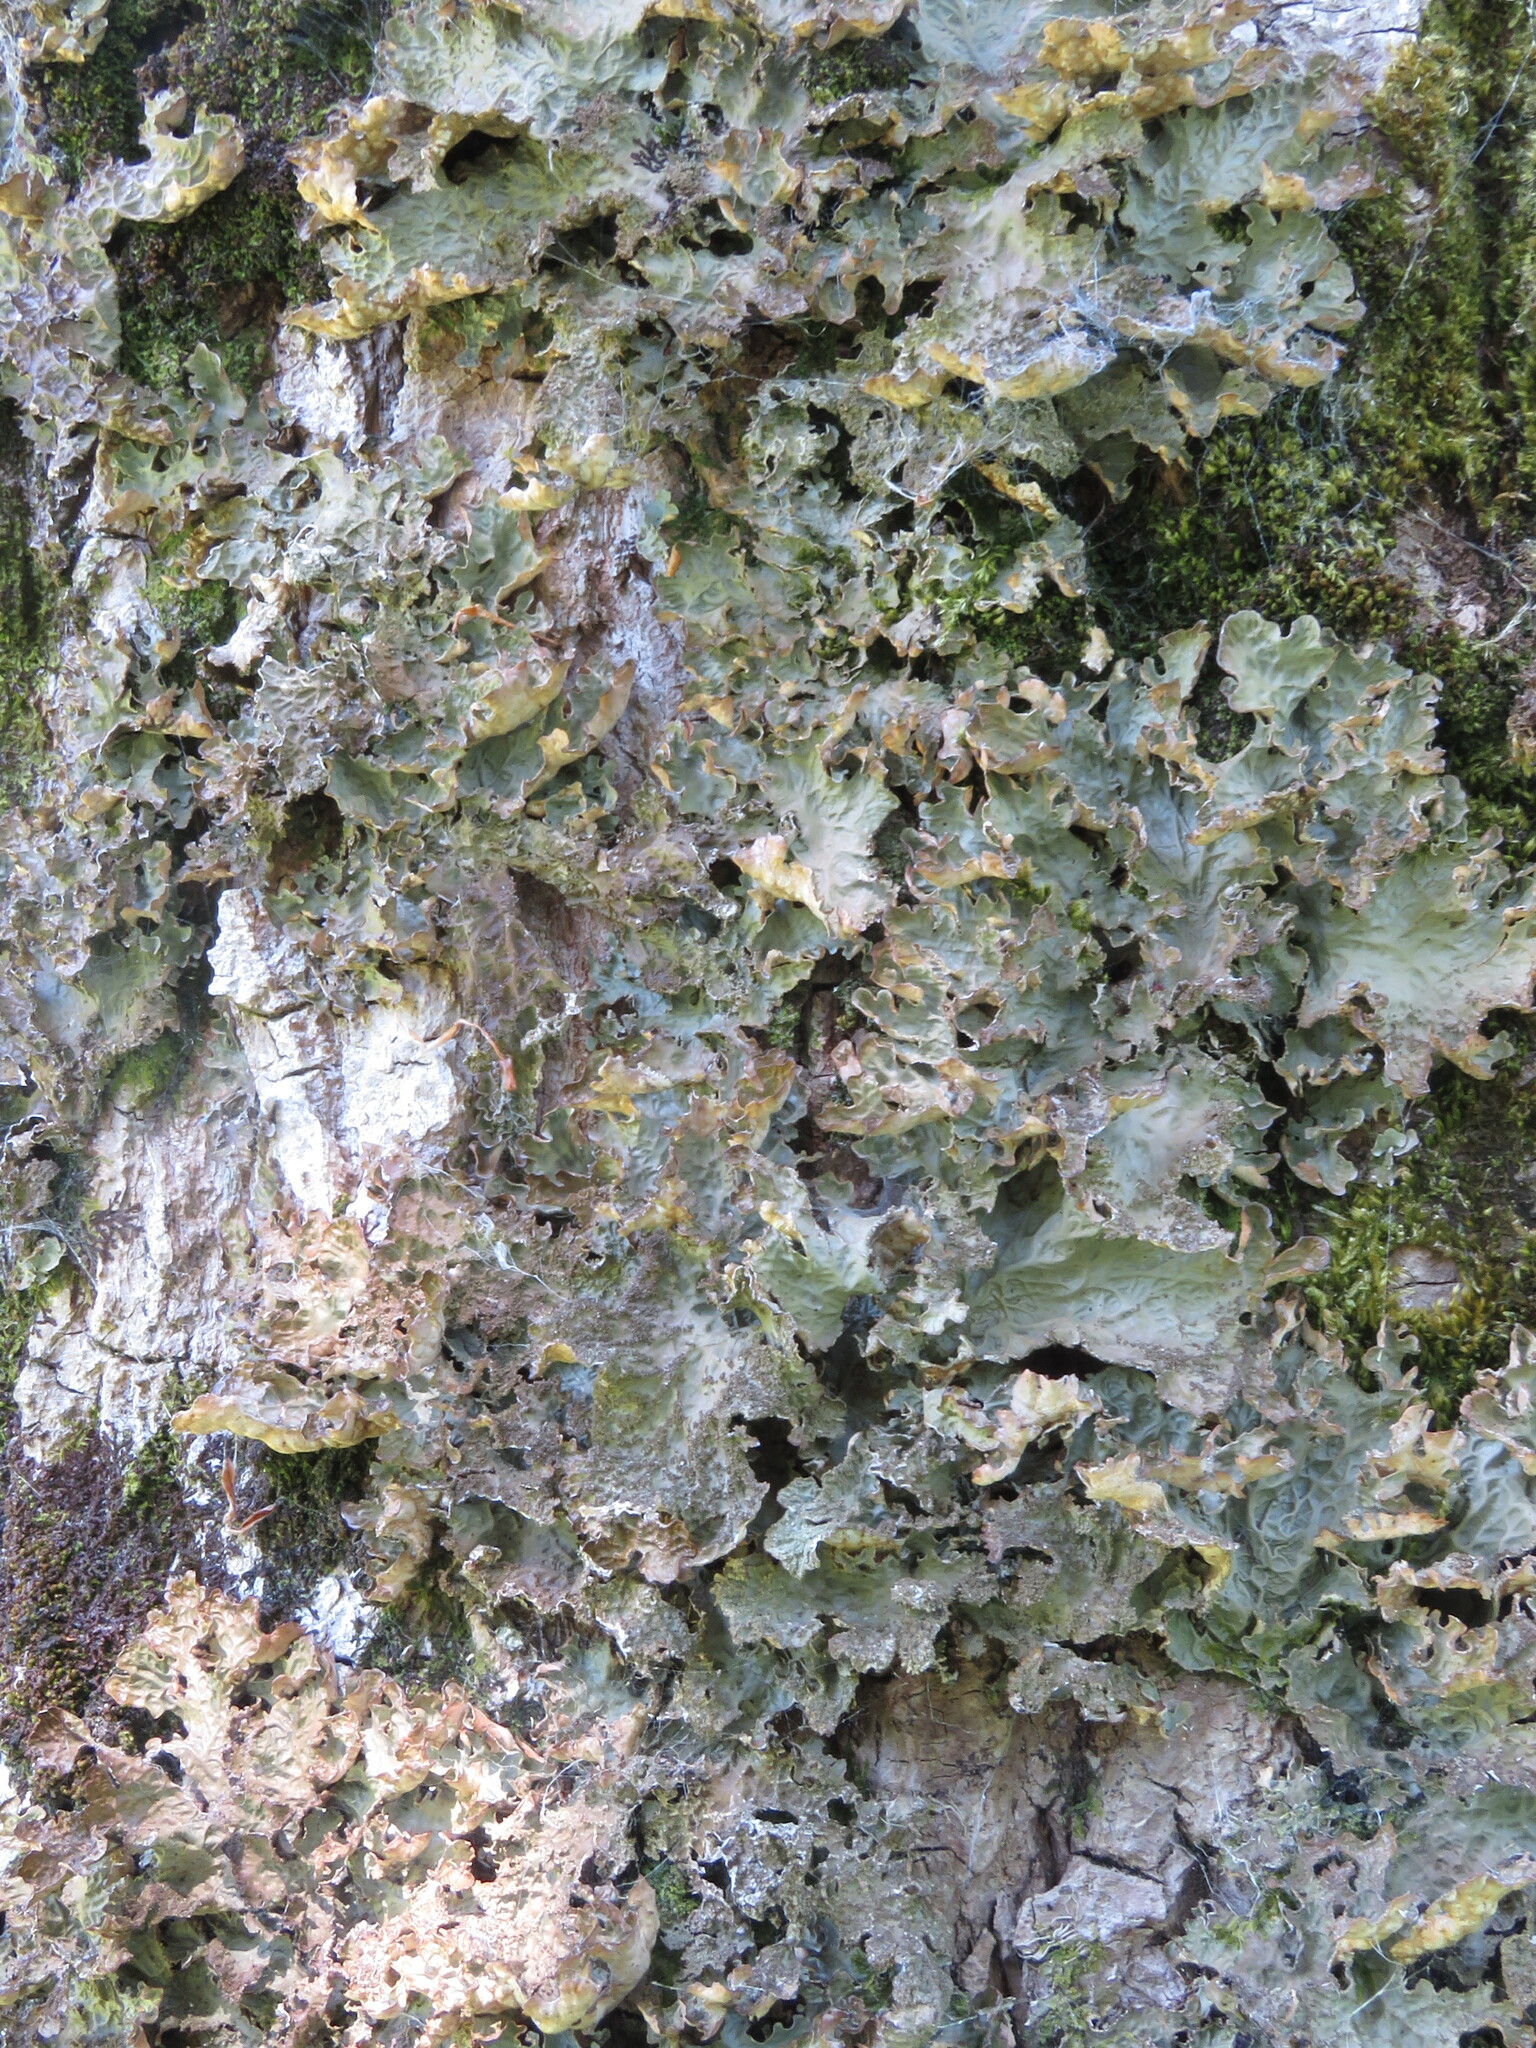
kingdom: Fungi
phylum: Ascomycota
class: Lecanoromycetes
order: Peltigerales
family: Lobariaceae
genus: Lobaria
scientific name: Lobaria pulmonaria
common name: Lungwort
